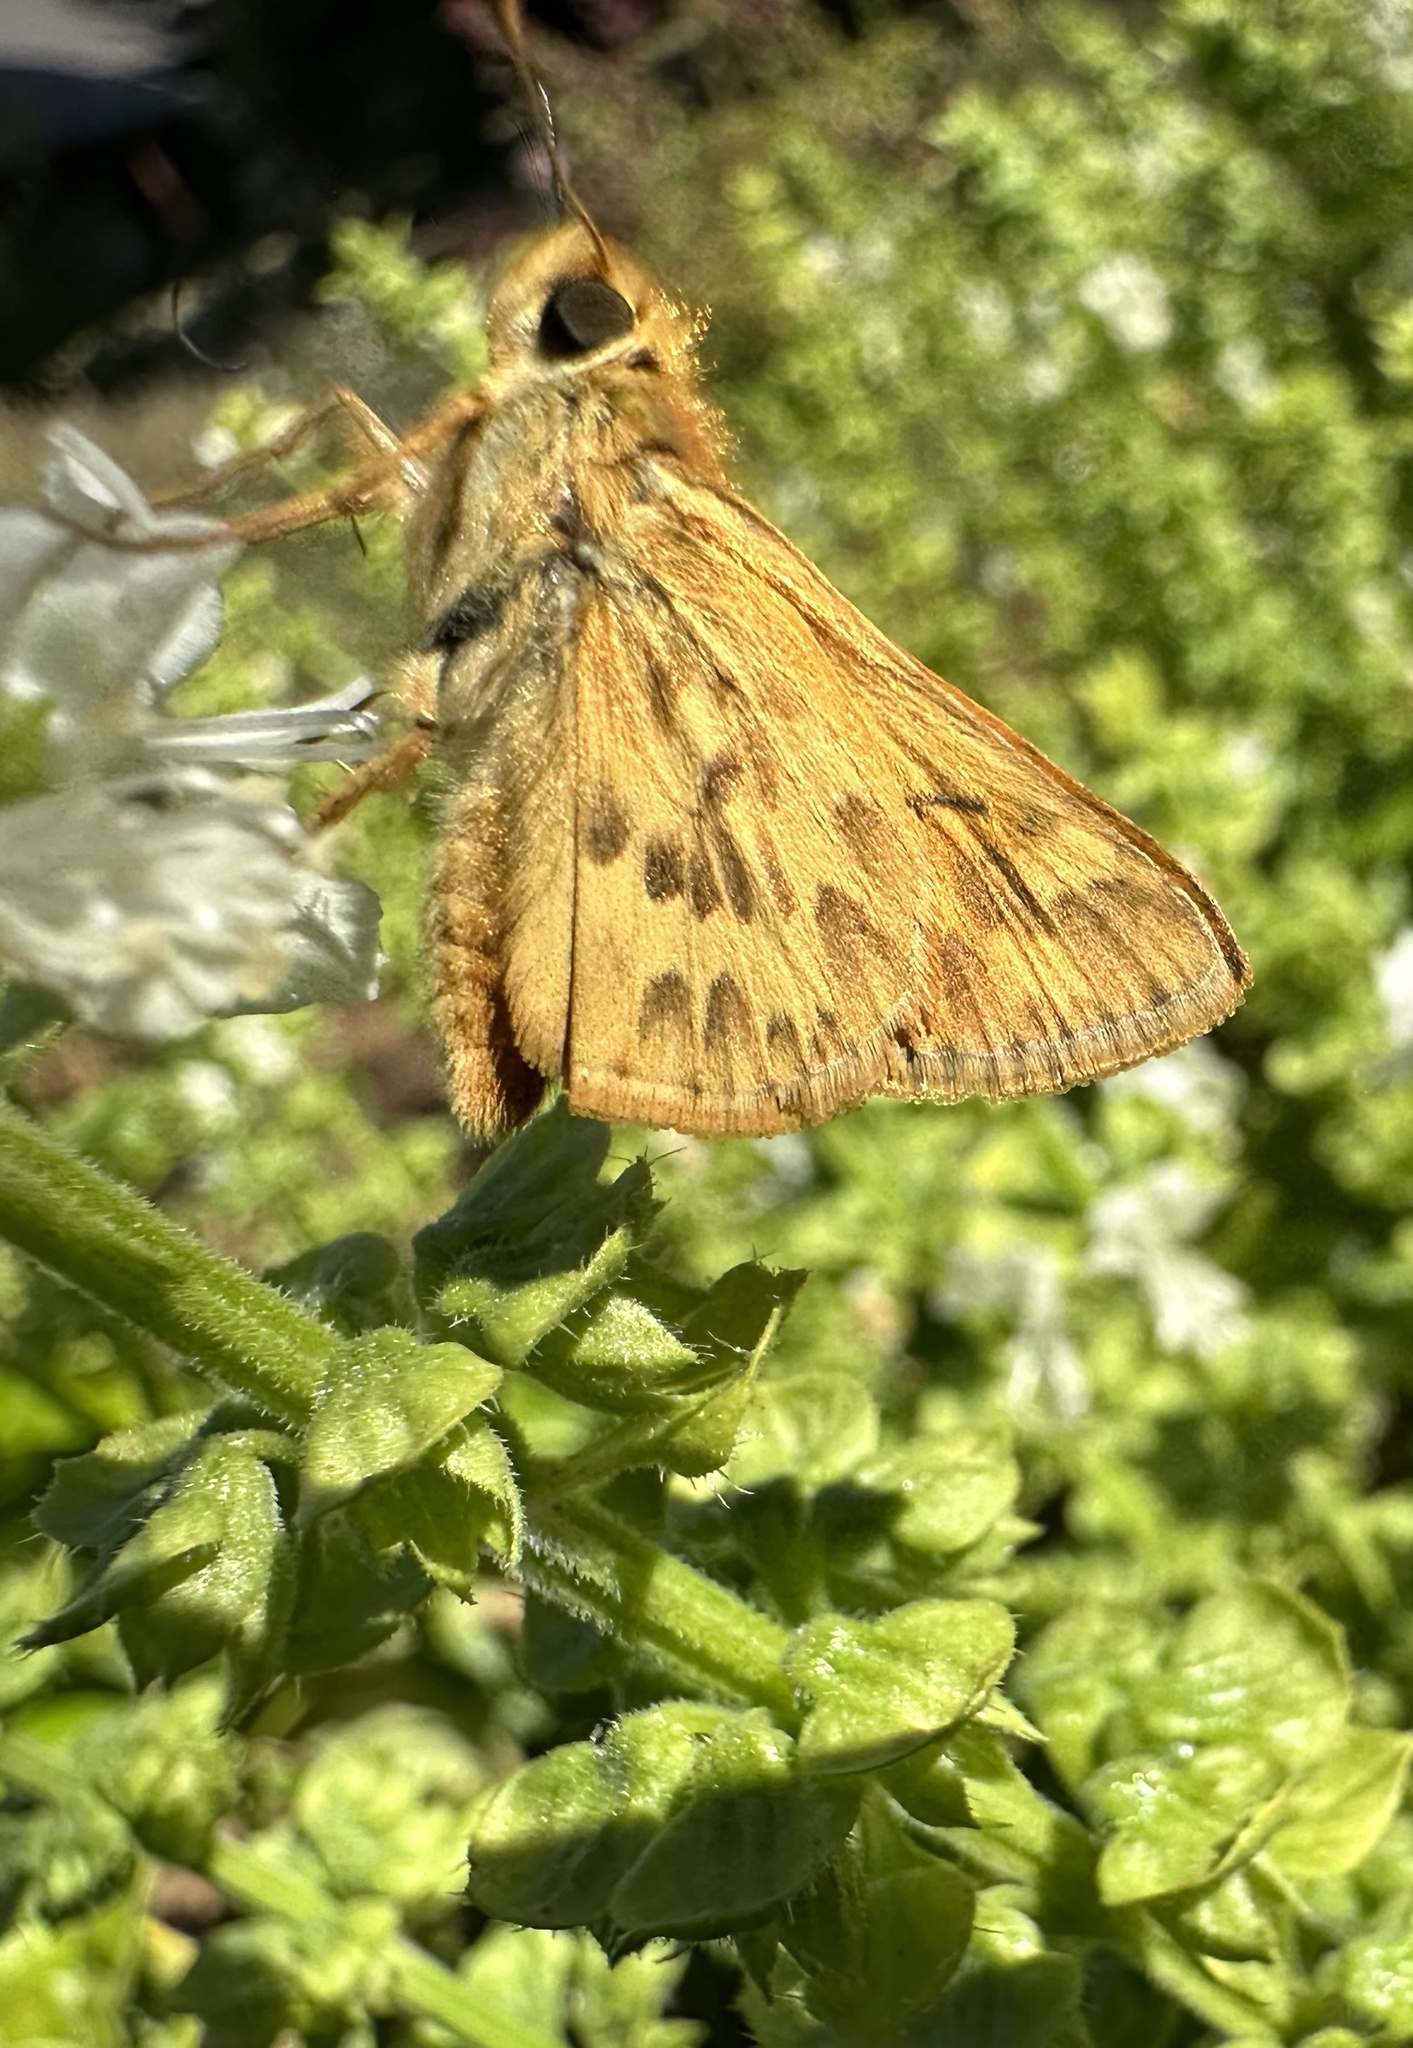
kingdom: Animalia
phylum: Arthropoda
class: Insecta
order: Lepidoptera
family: Hesperiidae
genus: Hylephila
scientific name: Hylephila signata
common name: Signata skipper
